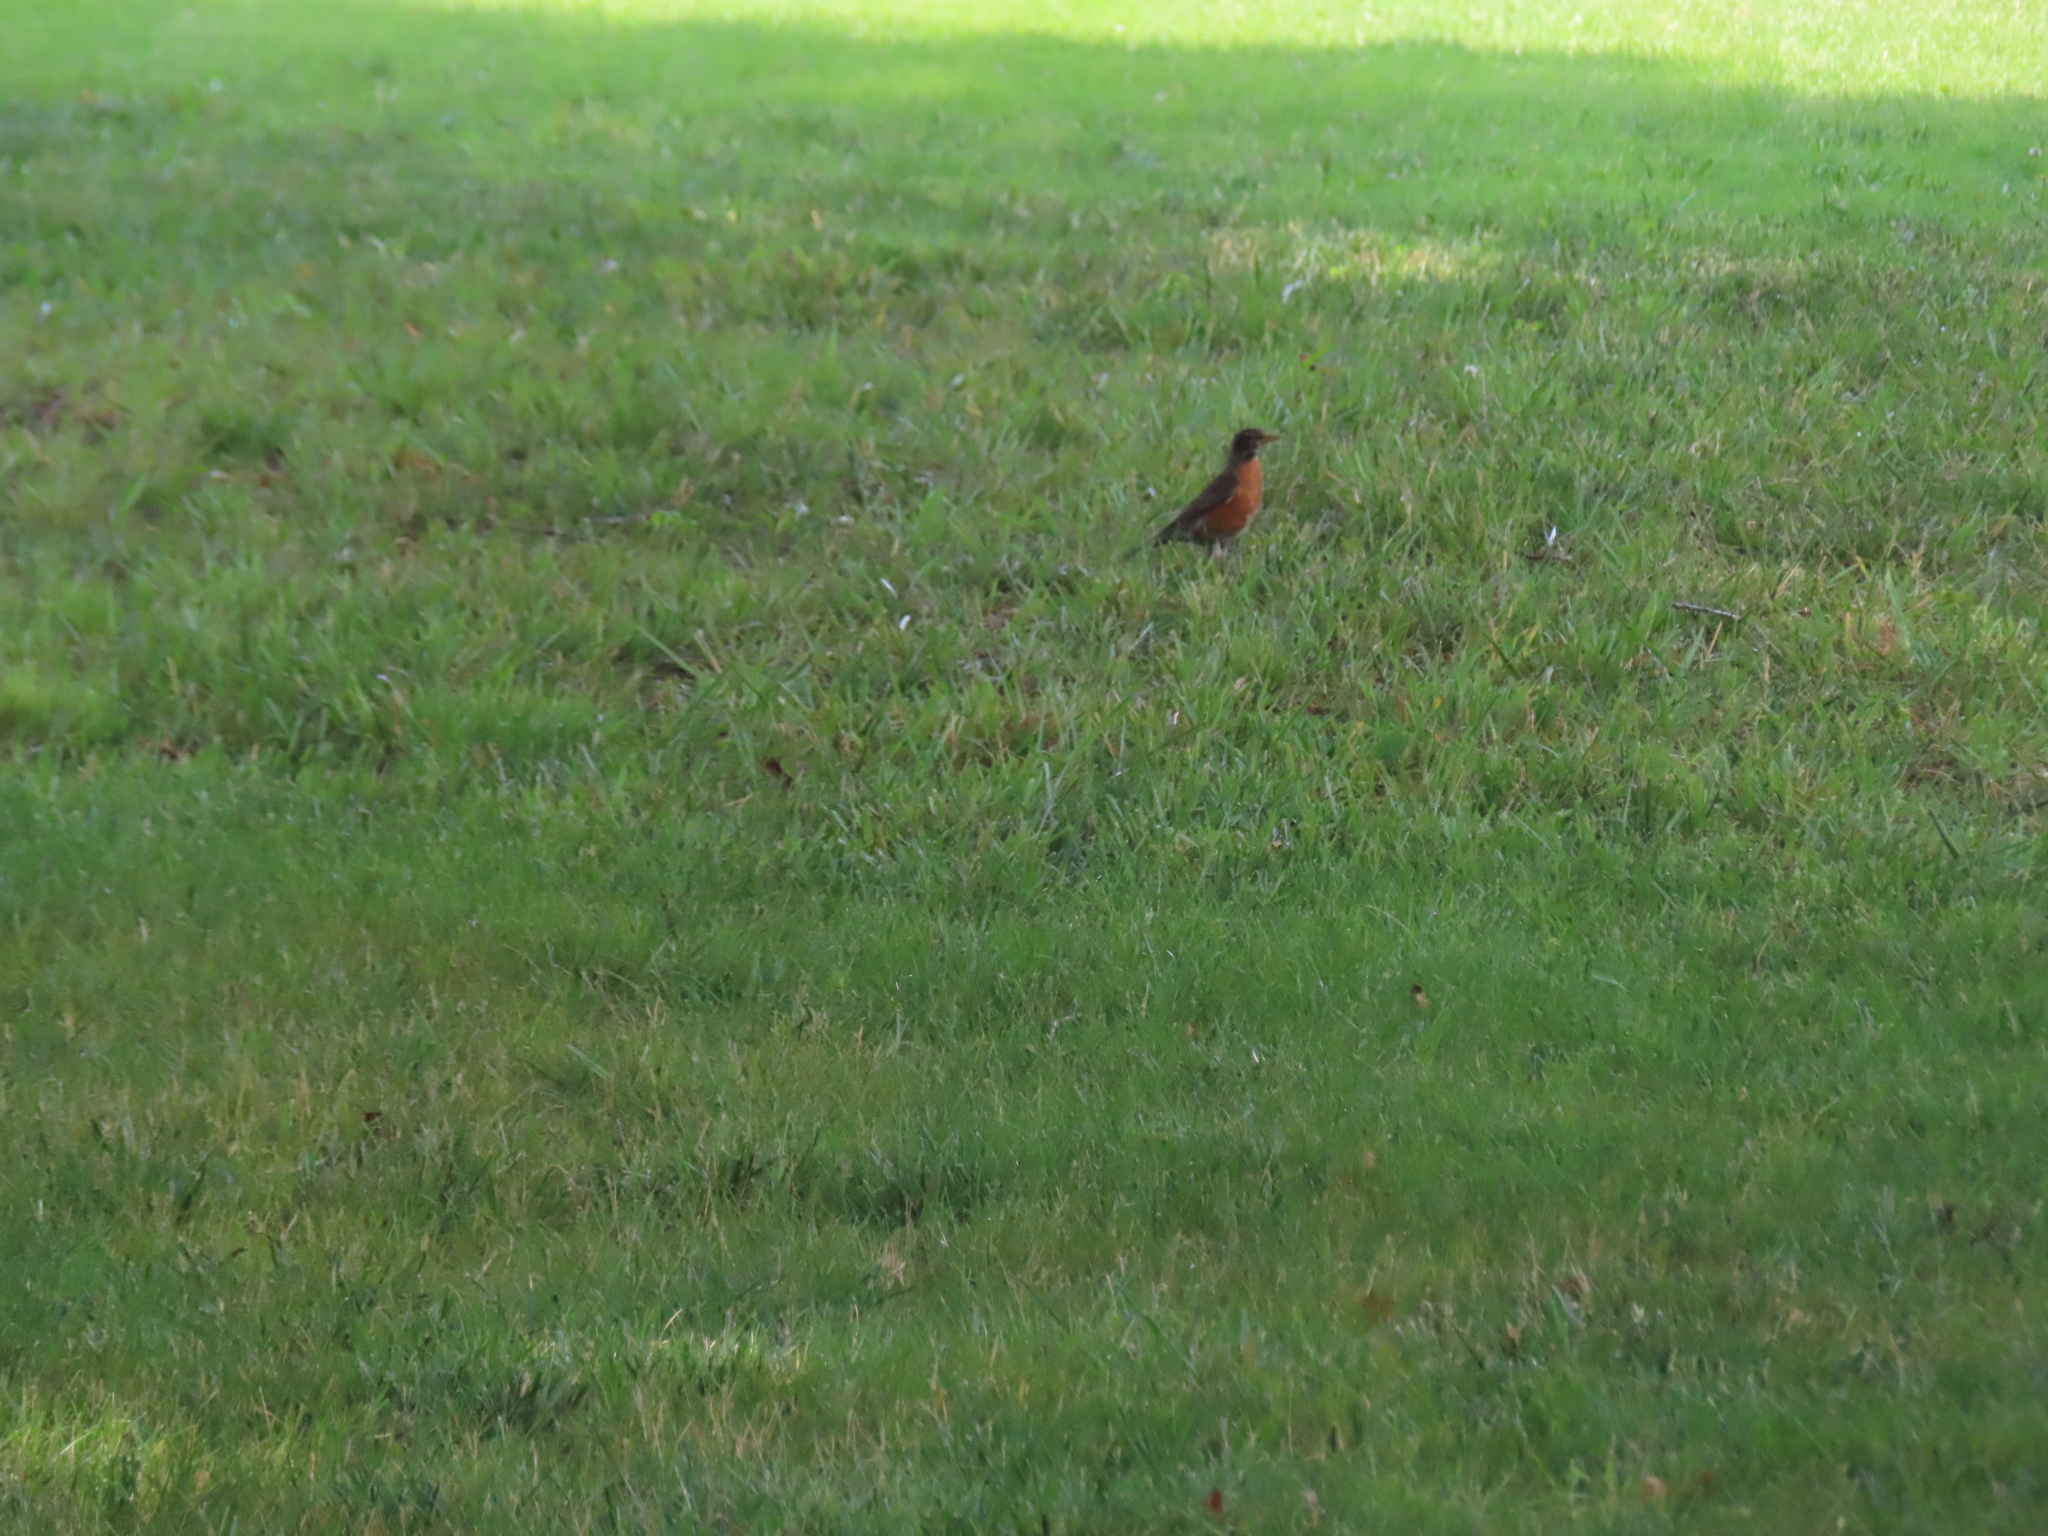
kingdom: Animalia
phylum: Chordata
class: Aves
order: Passeriformes
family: Turdidae
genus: Turdus
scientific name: Turdus migratorius
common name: American robin
